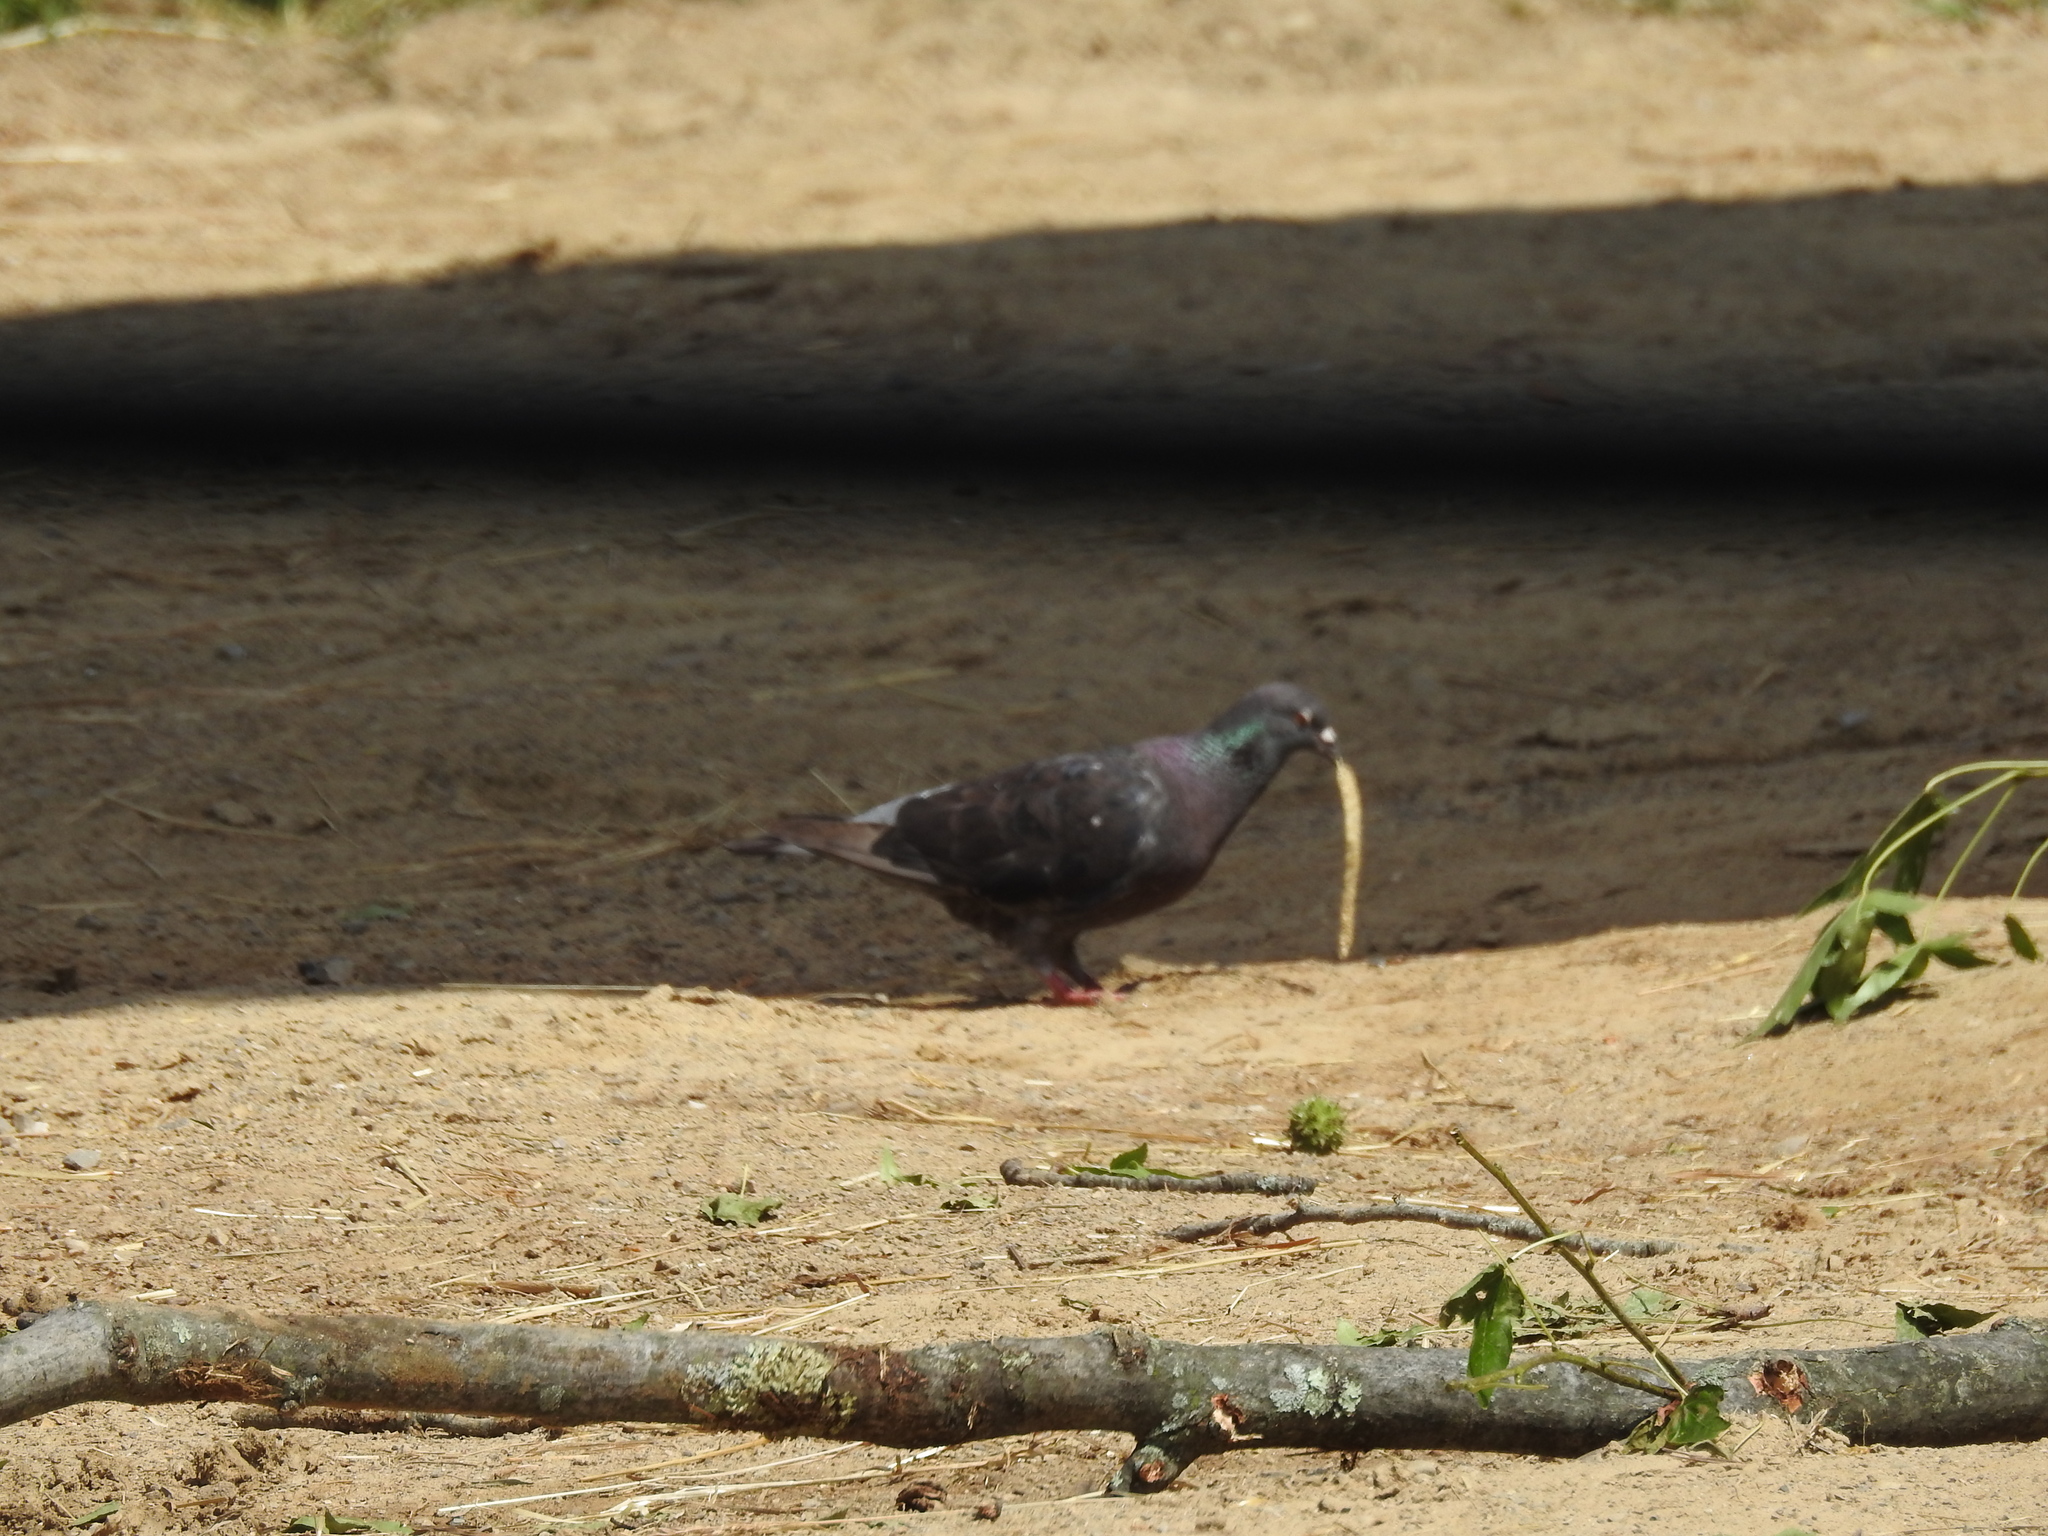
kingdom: Animalia
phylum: Chordata
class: Aves
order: Columbiformes
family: Columbidae
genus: Columba
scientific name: Columba livia
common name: Rock pigeon
